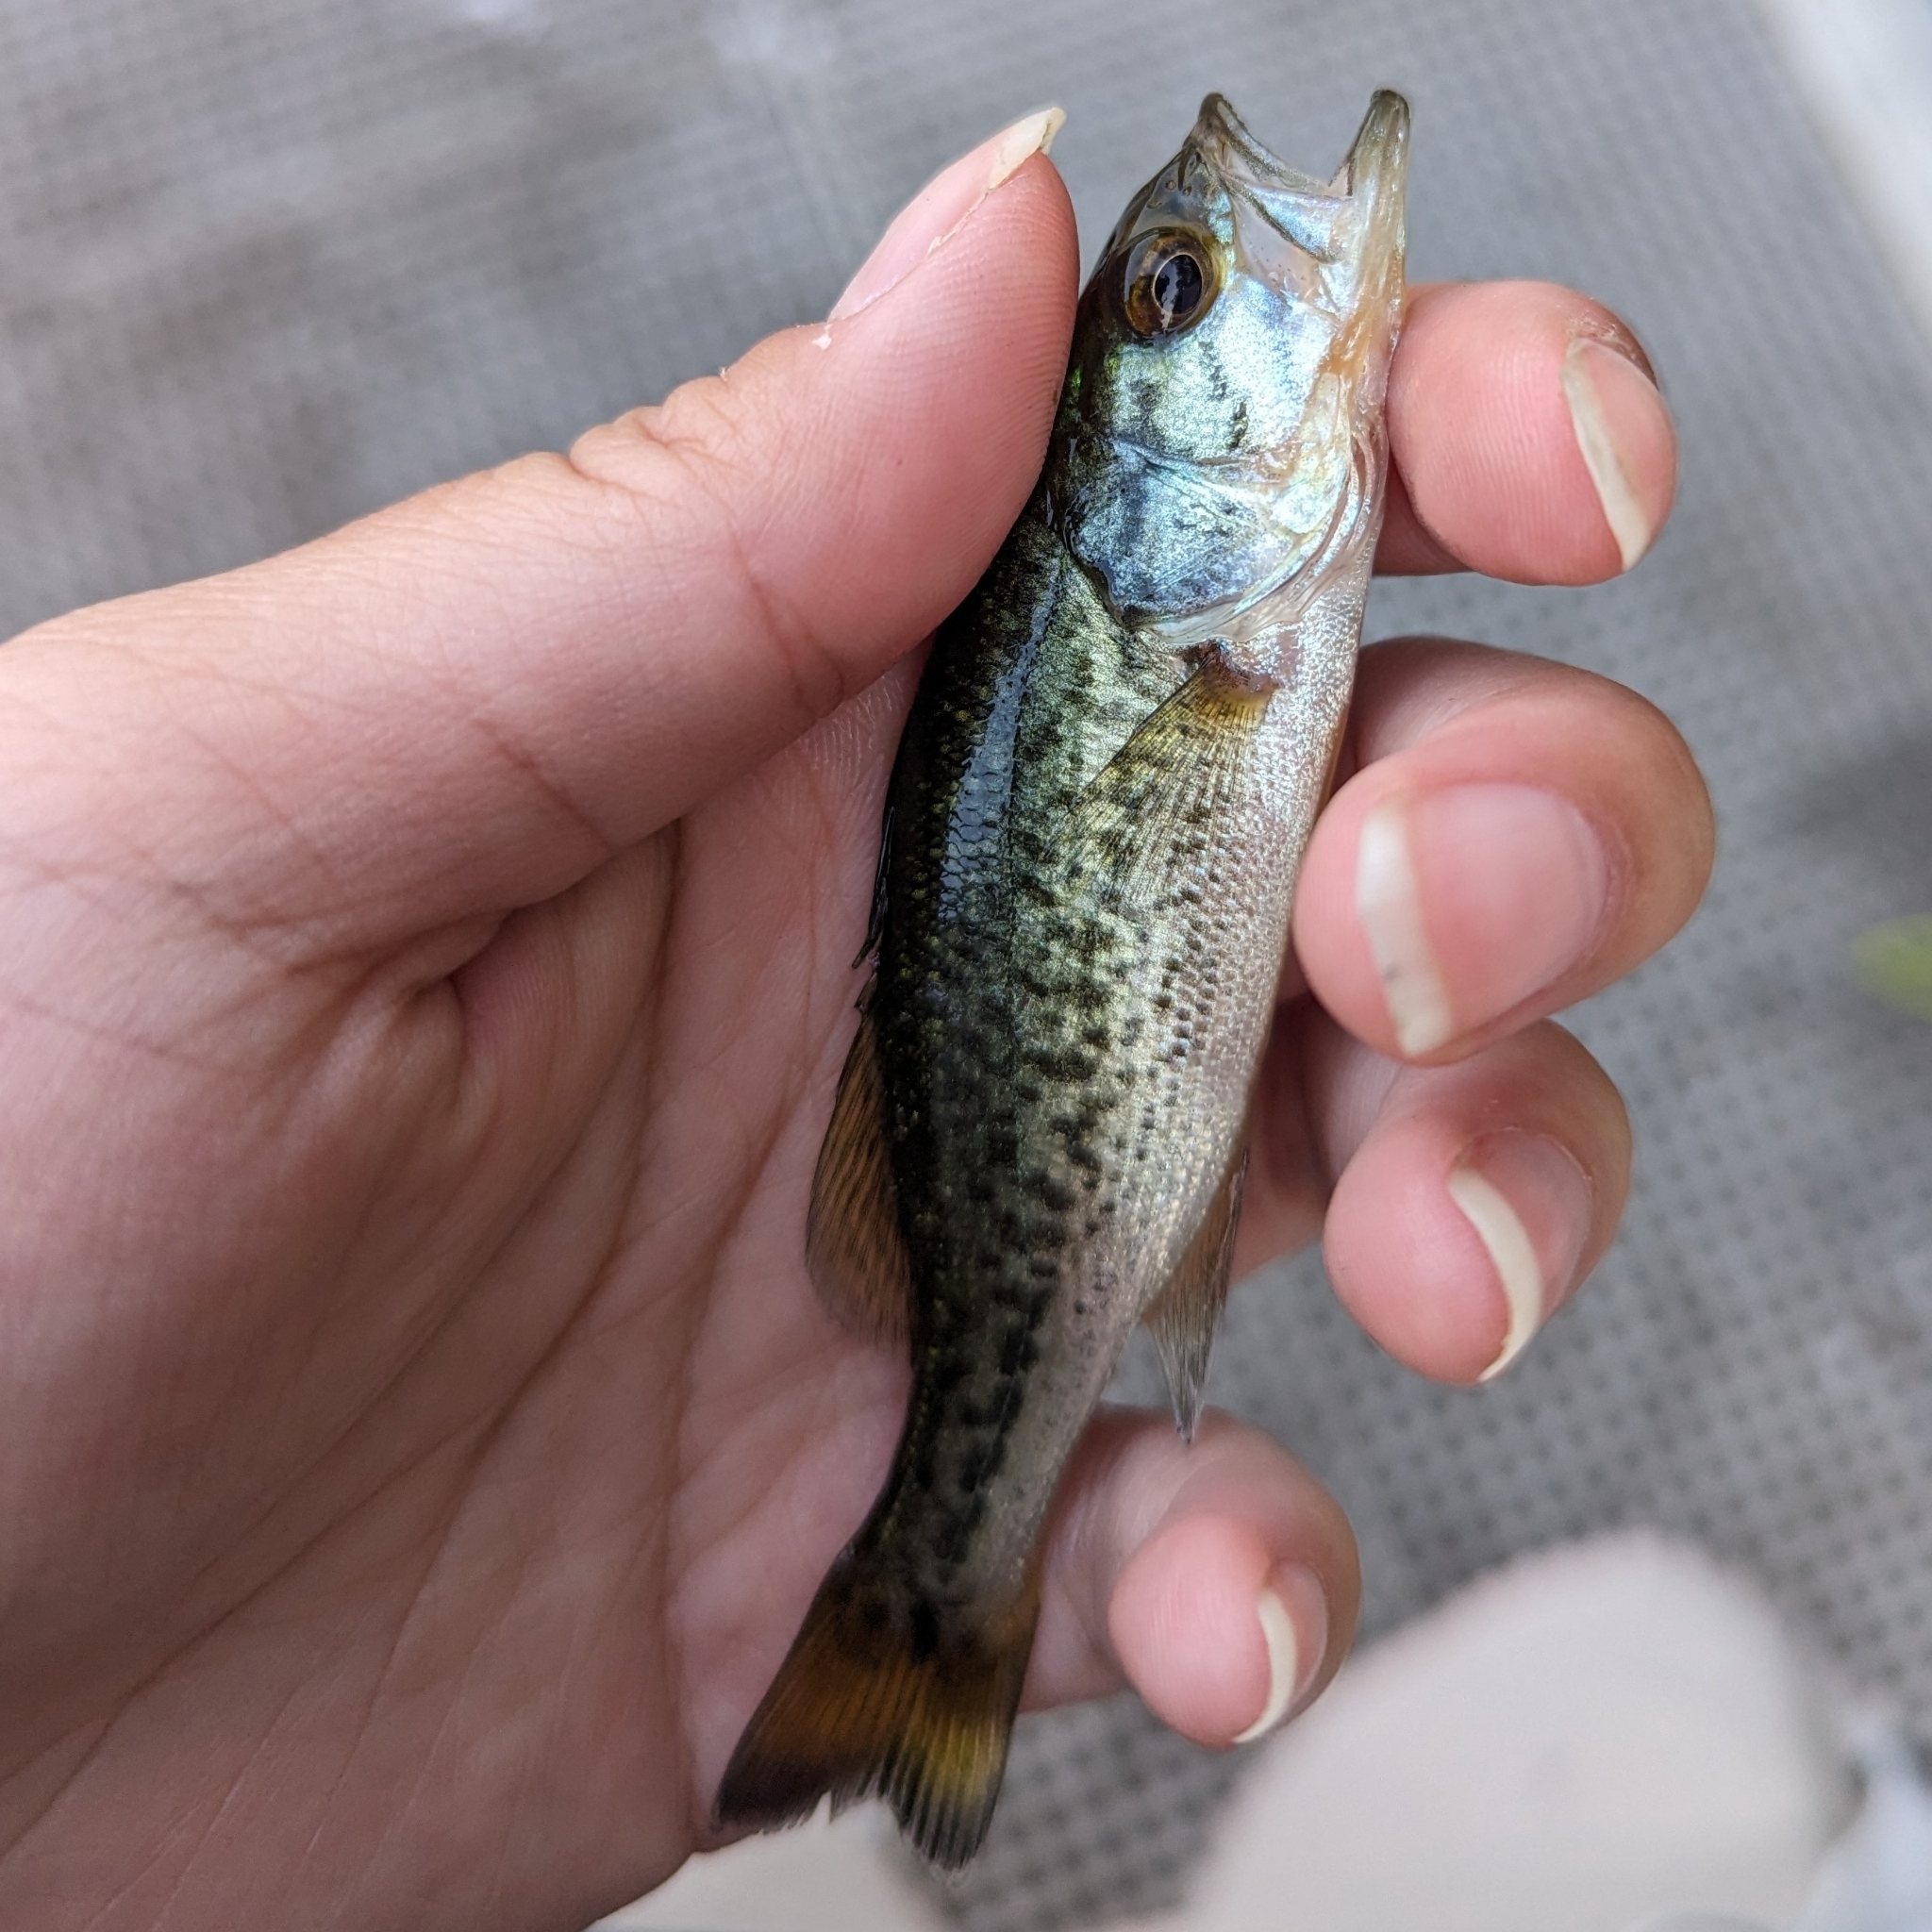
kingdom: Animalia
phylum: Chordata
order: Perciformes
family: Centrarchidae
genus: Micropterus
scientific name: Micropterus
